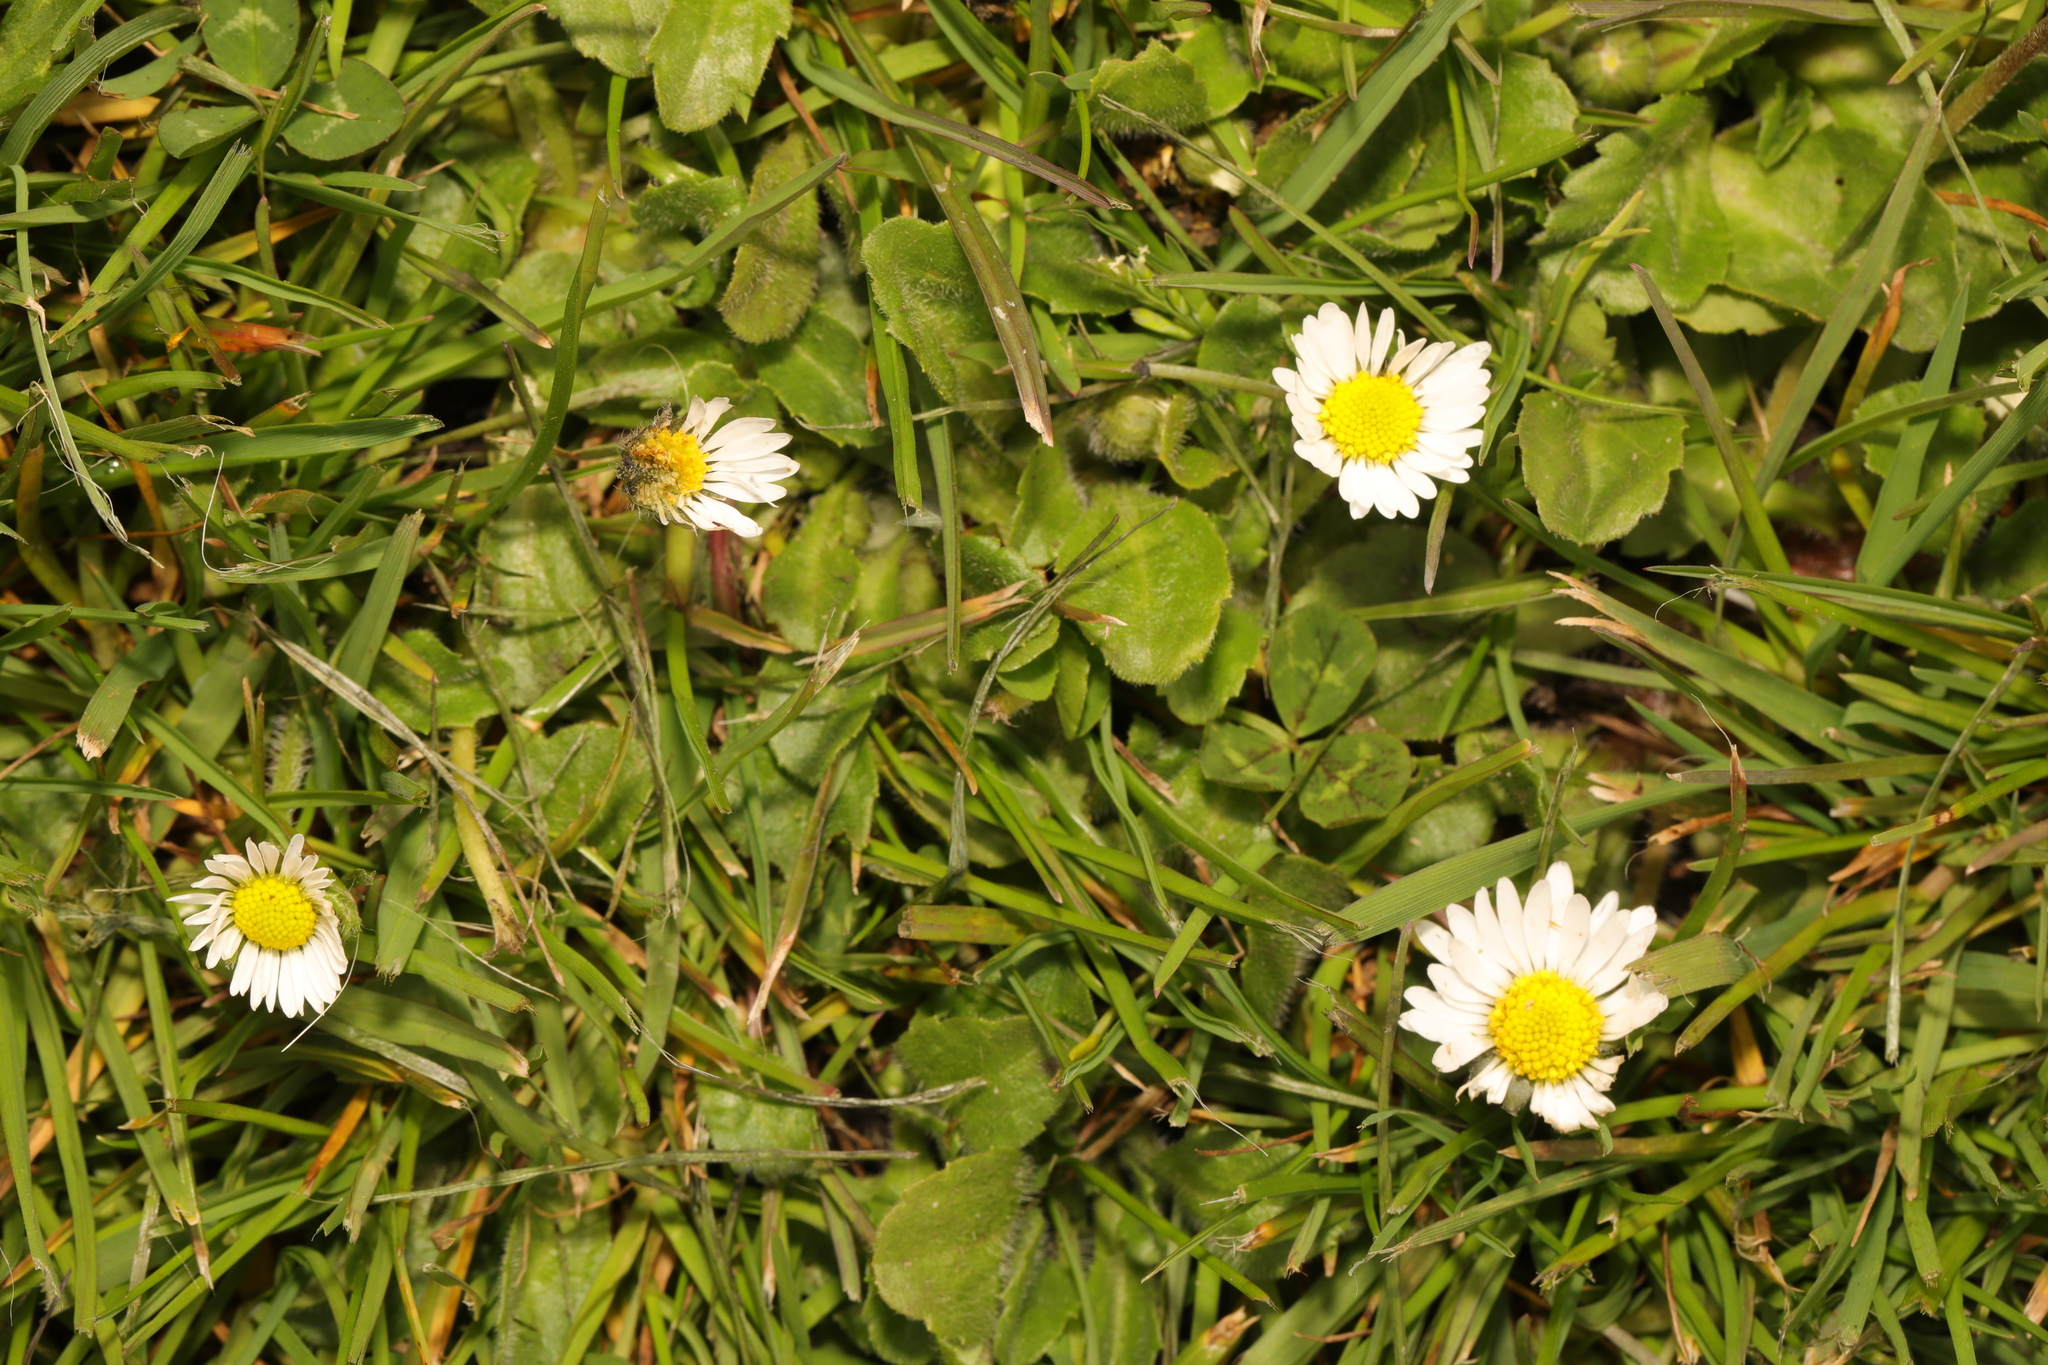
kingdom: Plantae
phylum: Tracheophyta
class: Magnoliopsida
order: Asterales
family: Asteraceae
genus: Bellis
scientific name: Bellis perennis
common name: Lawndaisy
